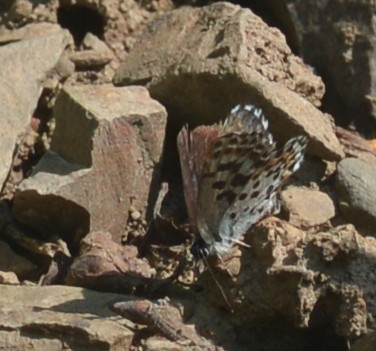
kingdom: Animalia
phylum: Arthropoda
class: Insecta
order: Lepidoptera
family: Lycaenidae
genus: Scolitantides
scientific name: Scolitantides orion
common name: Chequered blue
